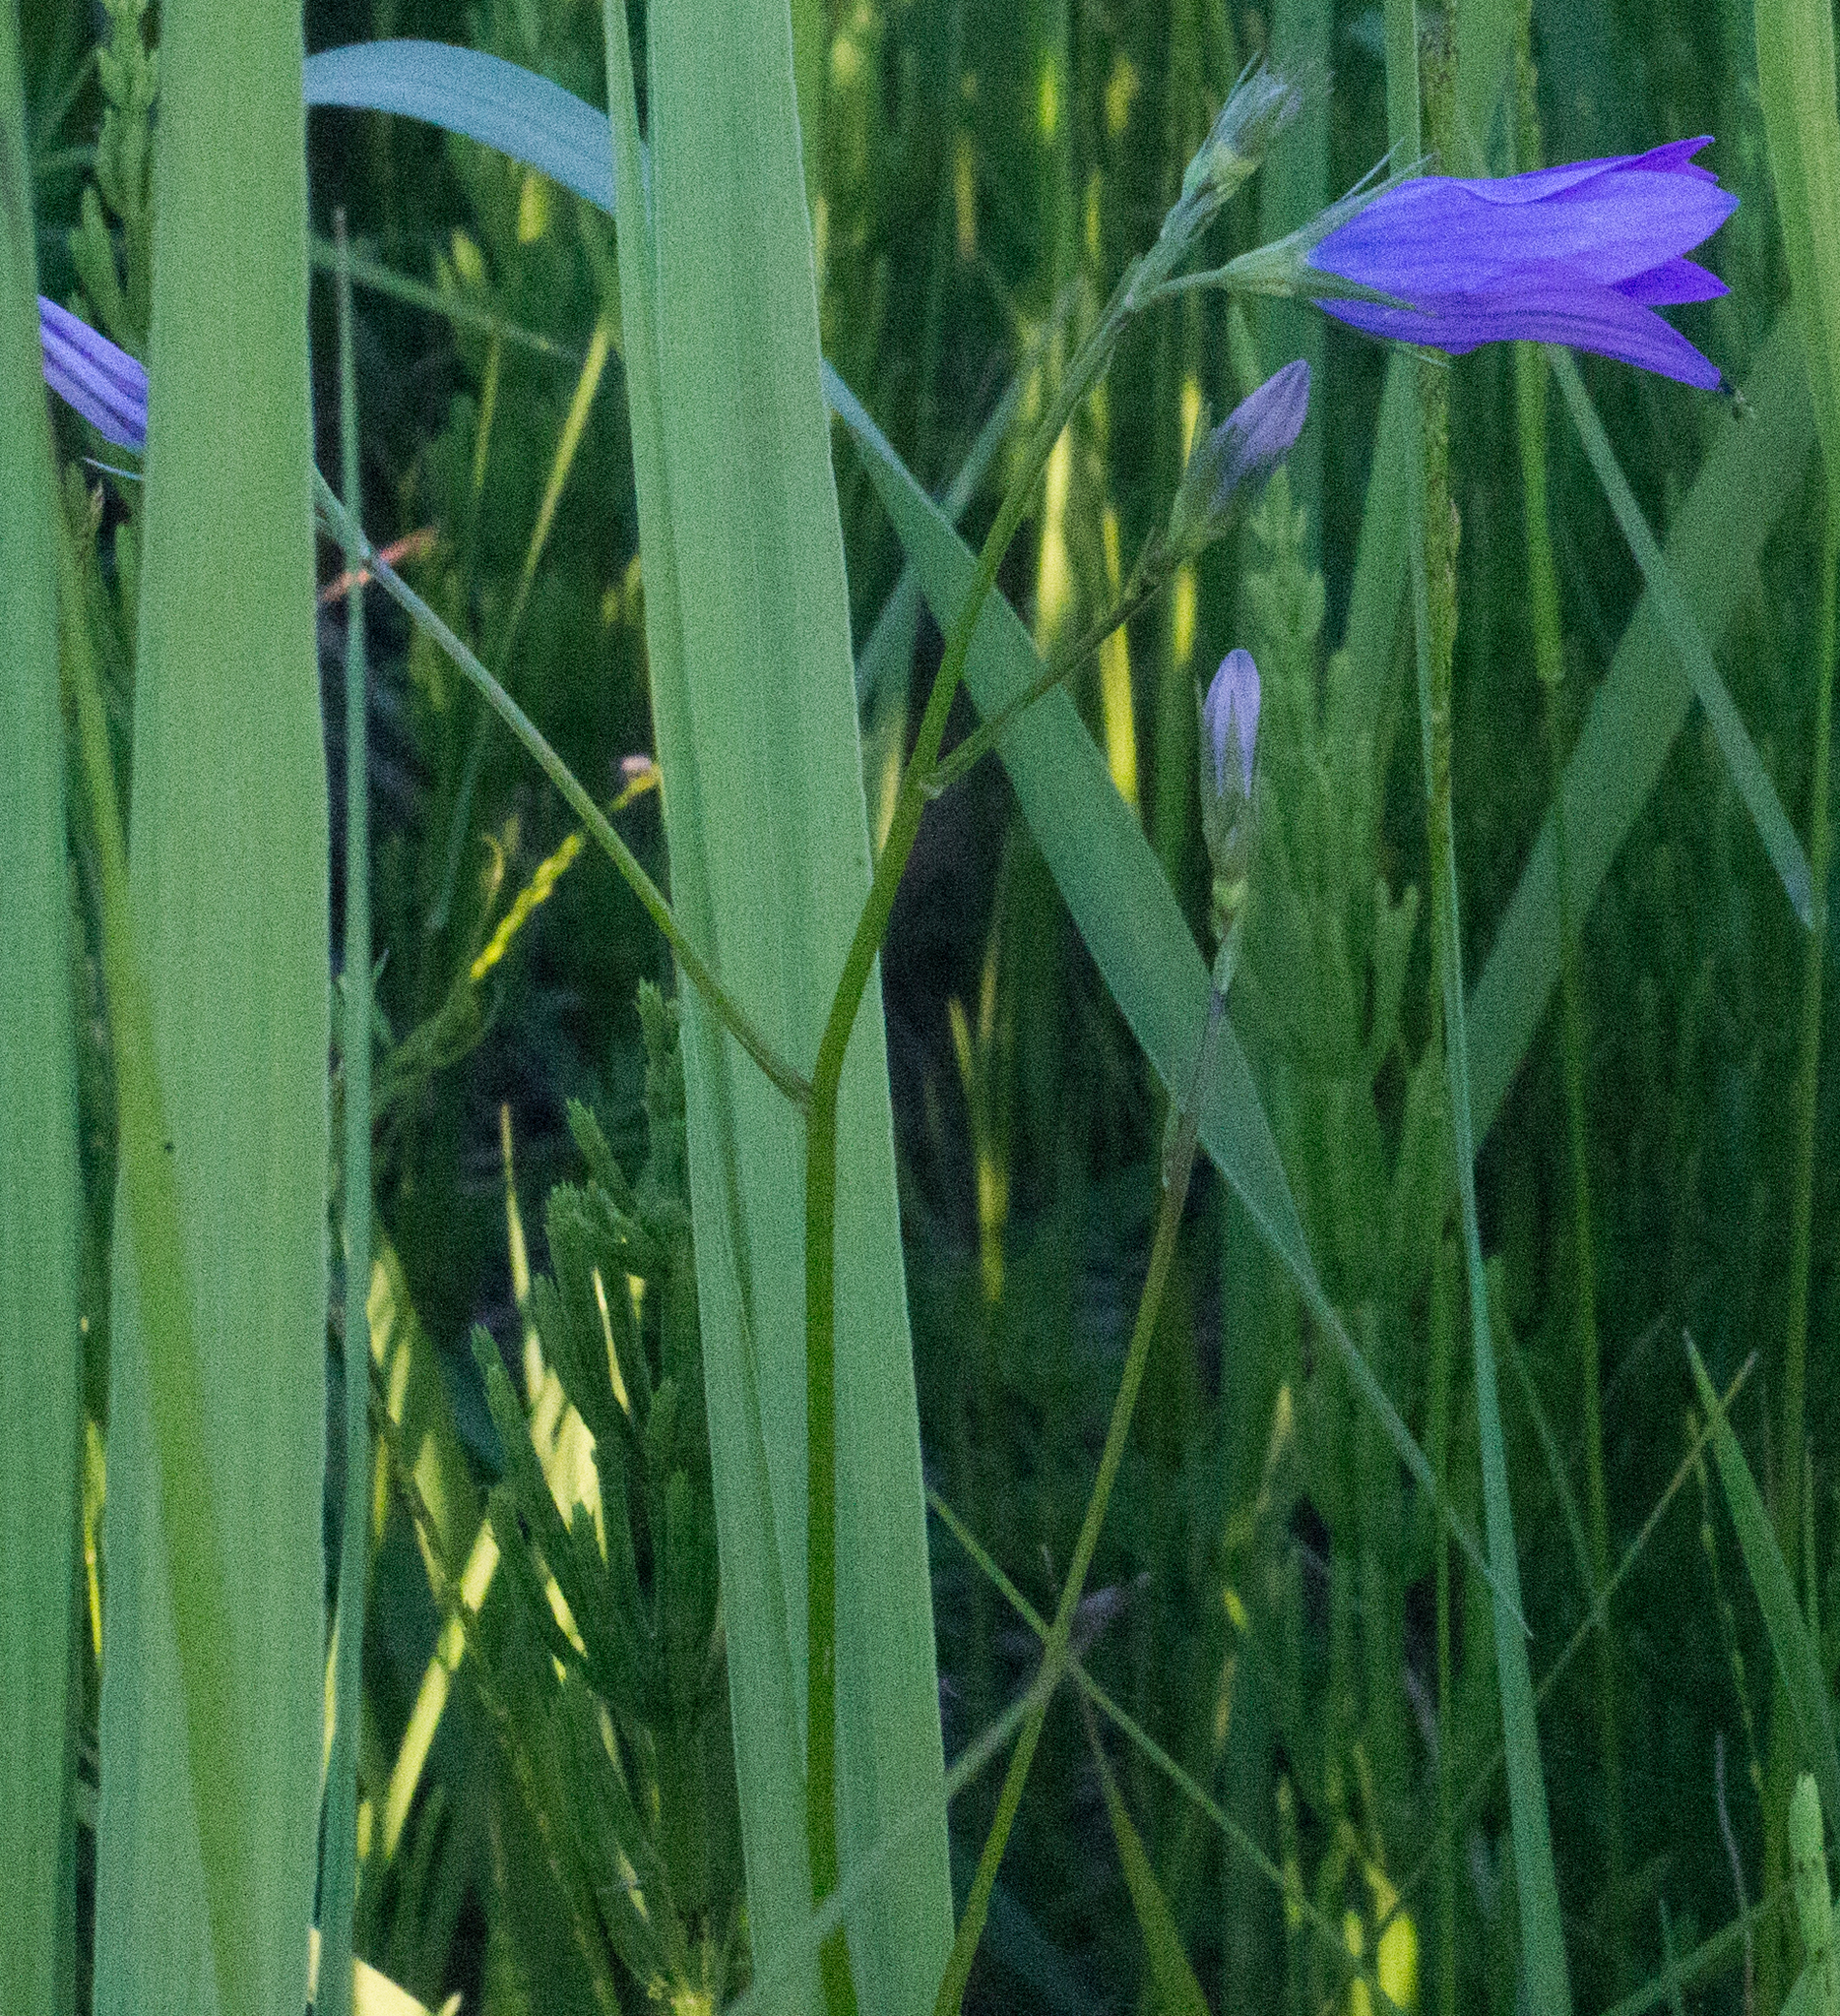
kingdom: Plantae
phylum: Tracheophyta
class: Magnoliopsida
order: Asterales
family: Campanulaceae
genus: Campanula
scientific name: Campanula patula
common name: Spreading bellflower
